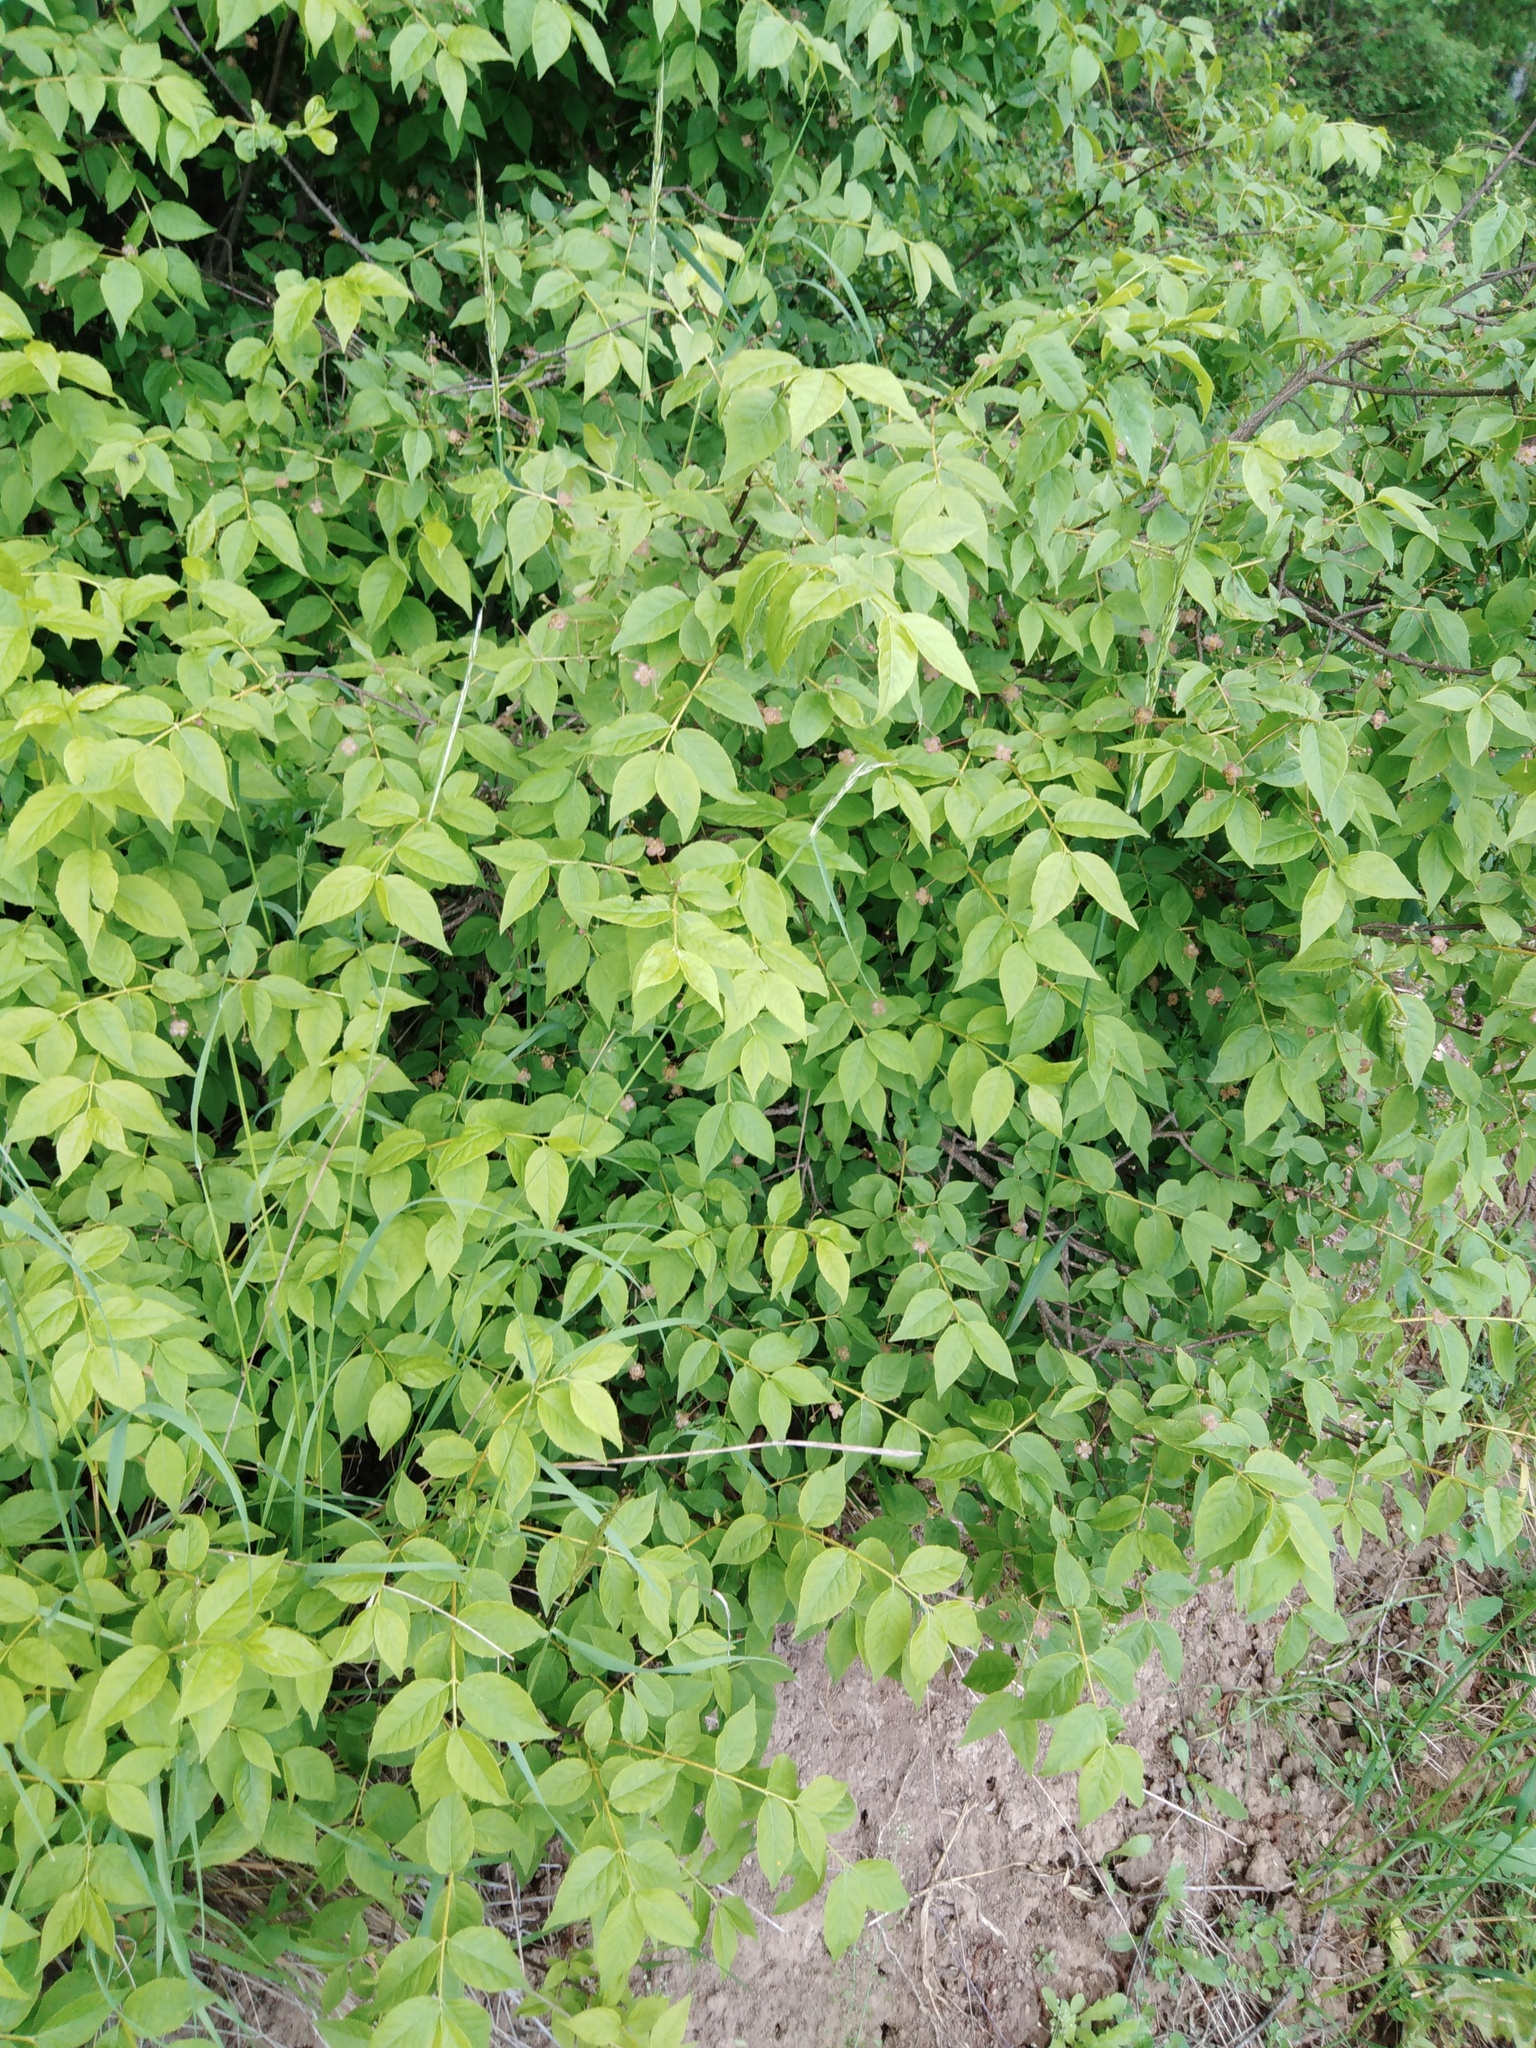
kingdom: Plantae
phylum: Tracheophyta
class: Magnoliopsida
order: Celastrales
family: Celastraceae
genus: Euonymus
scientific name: Euonymus verrucosus
